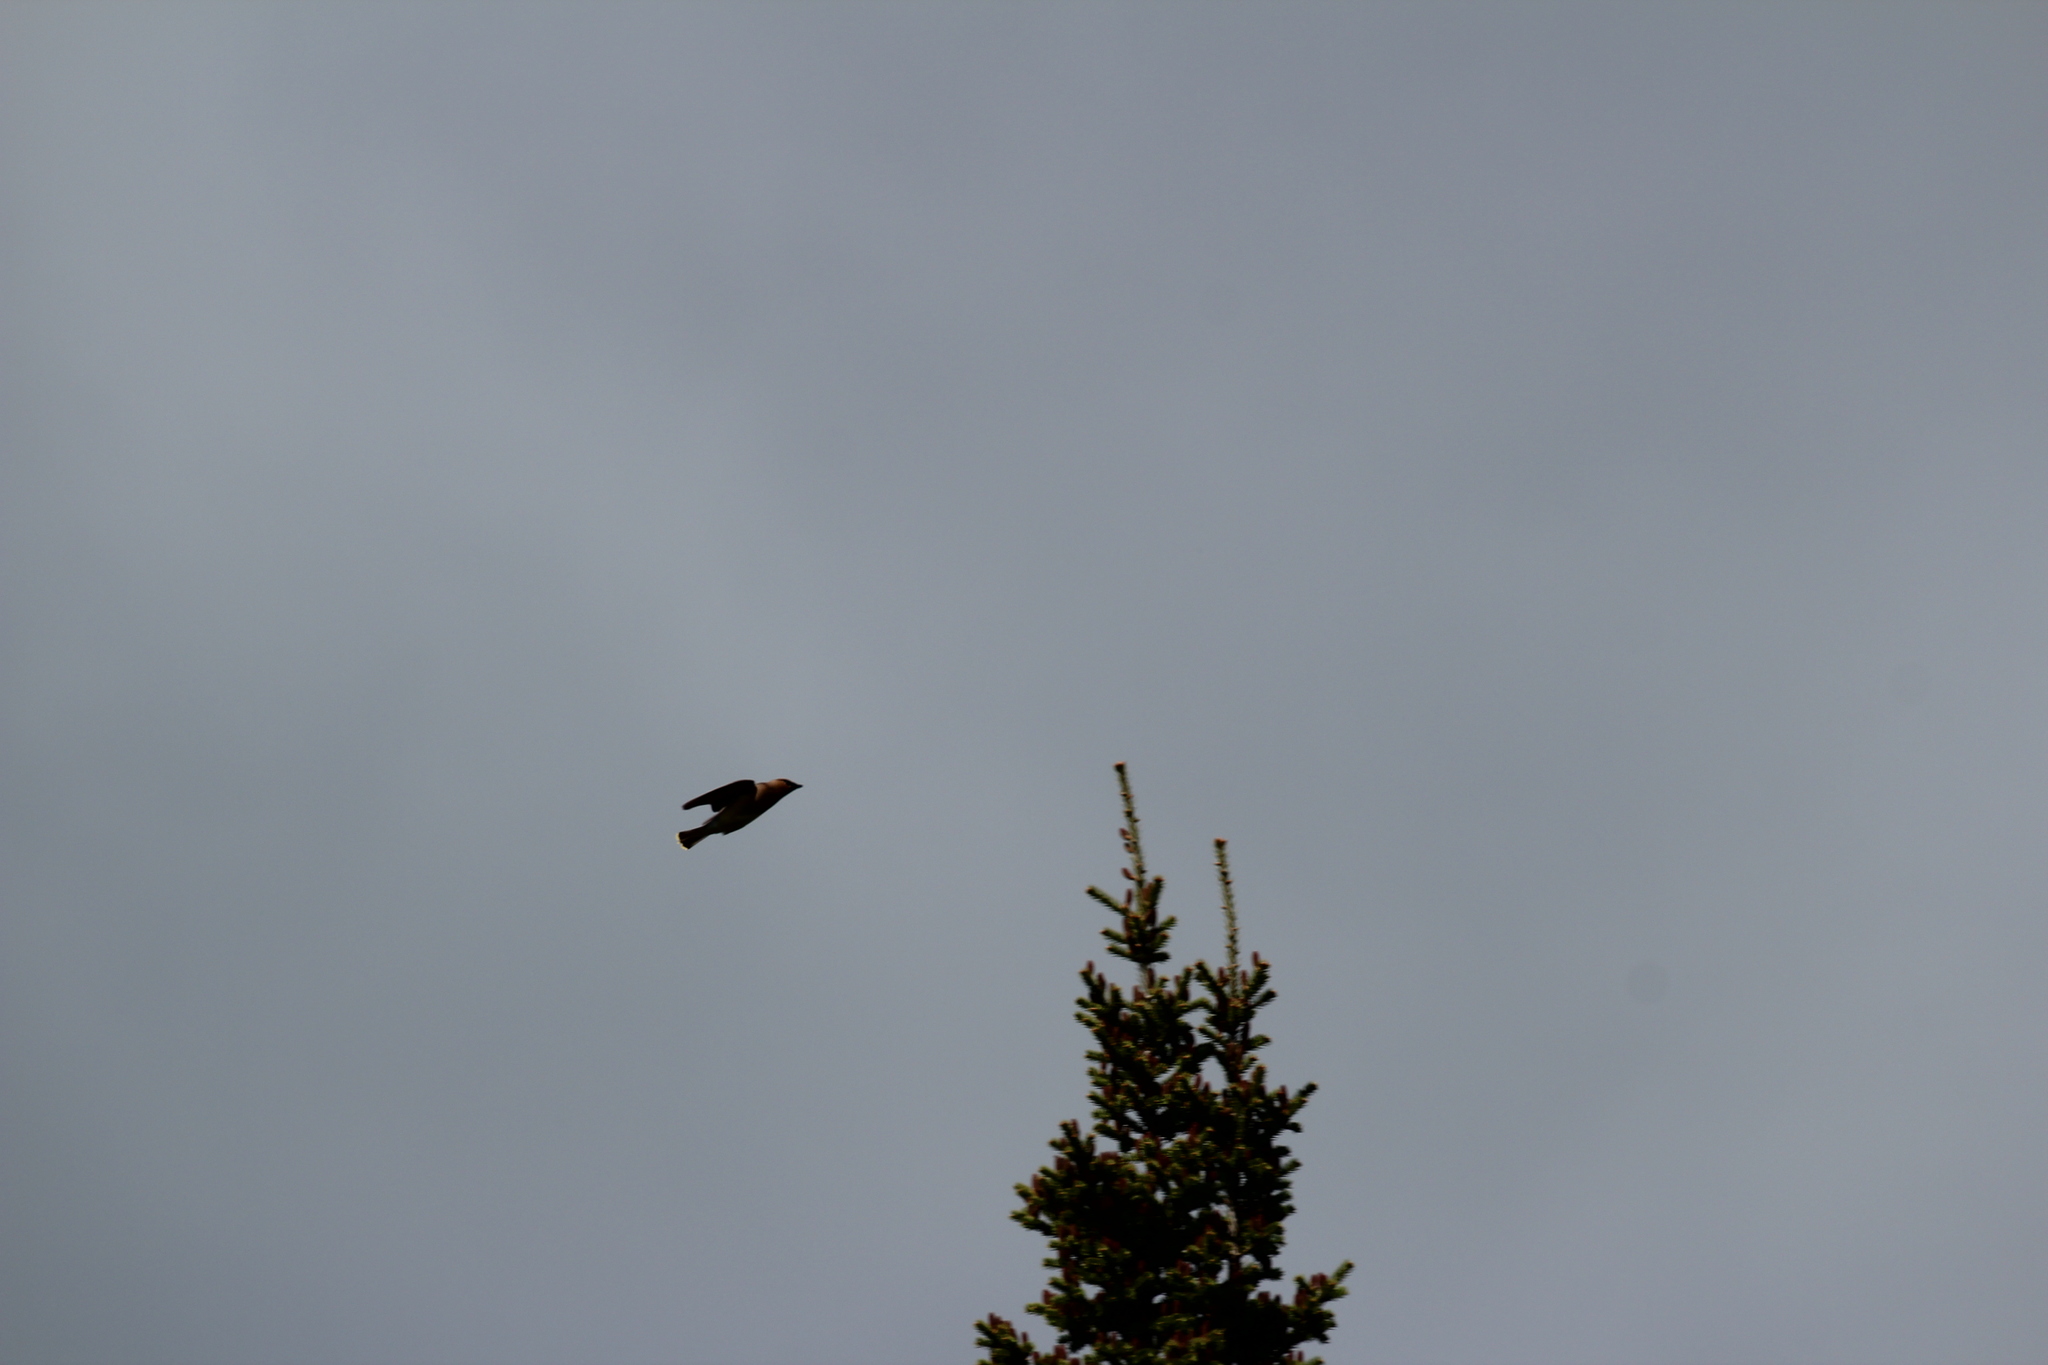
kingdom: Animalia
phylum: Chordata
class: Aves
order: Passeriformes
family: Bombycillidae
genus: Bombycilla
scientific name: Bombycilla cedrorum
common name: Cedar waxwing
